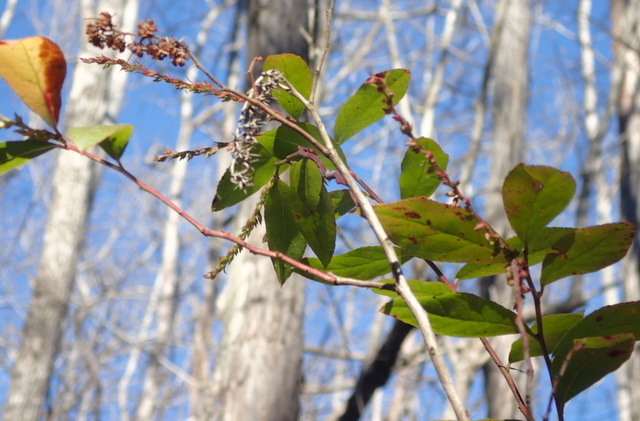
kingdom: Plantae
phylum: Tracheophyta
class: Magnoliopsida
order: Ericales
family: Ericaceae
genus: Eubotrys
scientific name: Eubotrys racemosa
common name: Fetterbush
